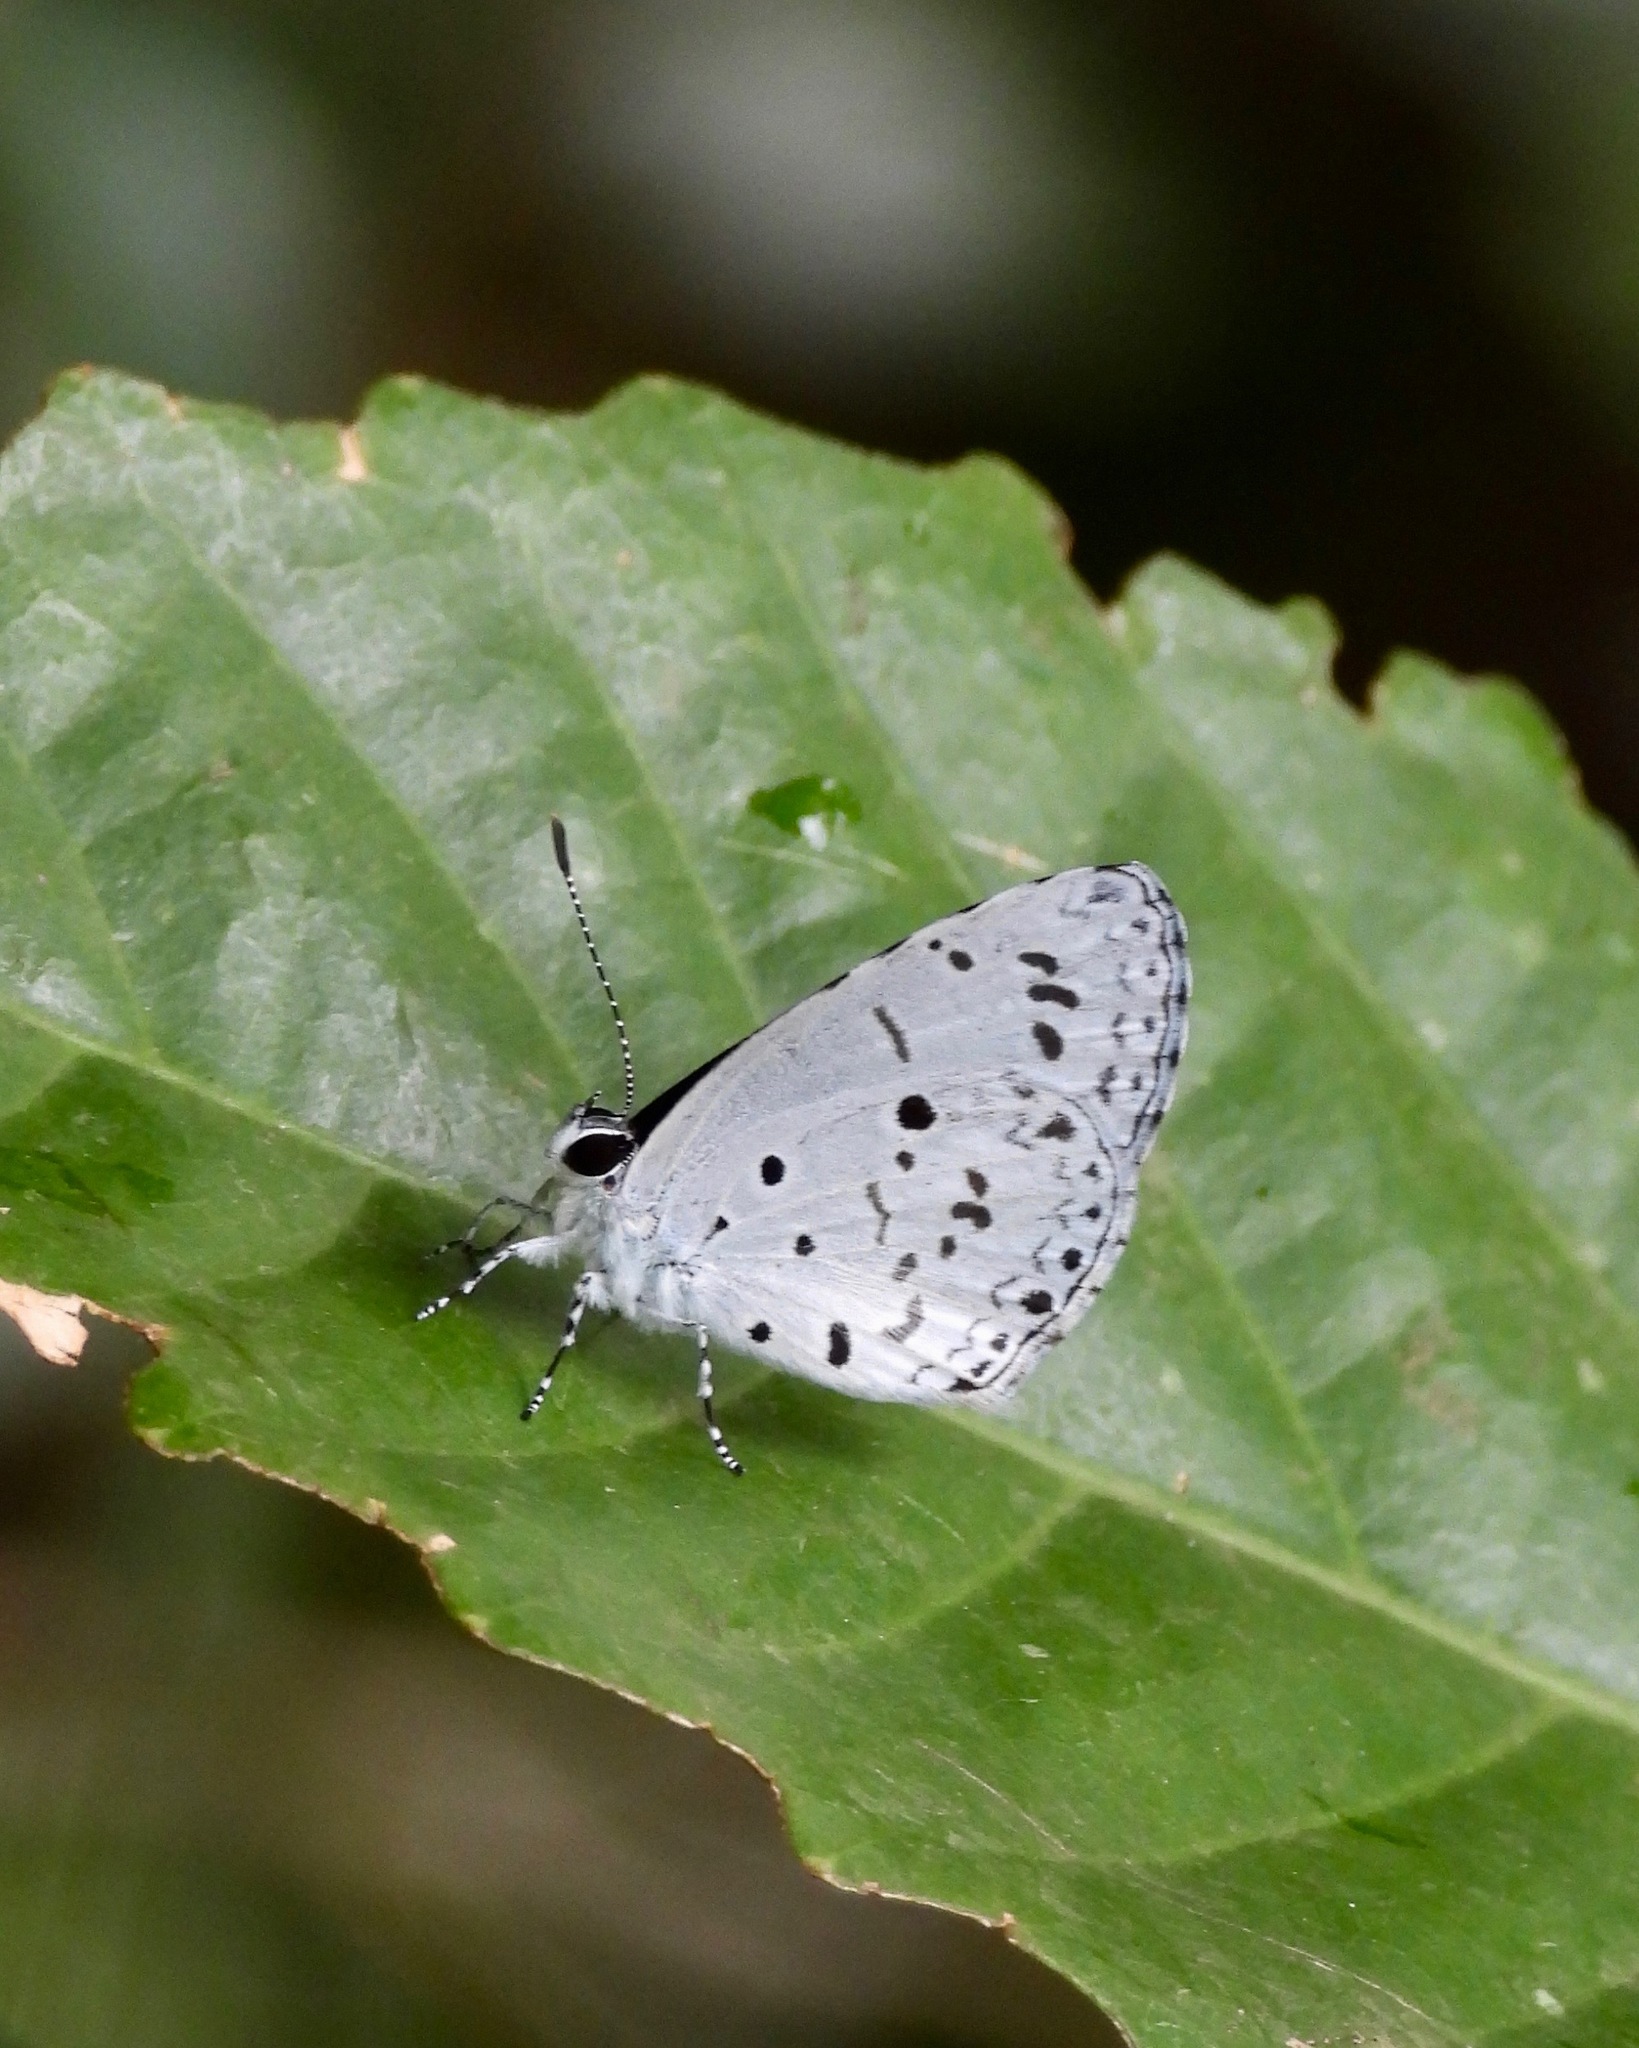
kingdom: Animalia
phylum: Arthropoda
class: Insecta
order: Lepidoptera
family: Lycaenidae
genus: Acytolepis
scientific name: Acytolepis puspa
